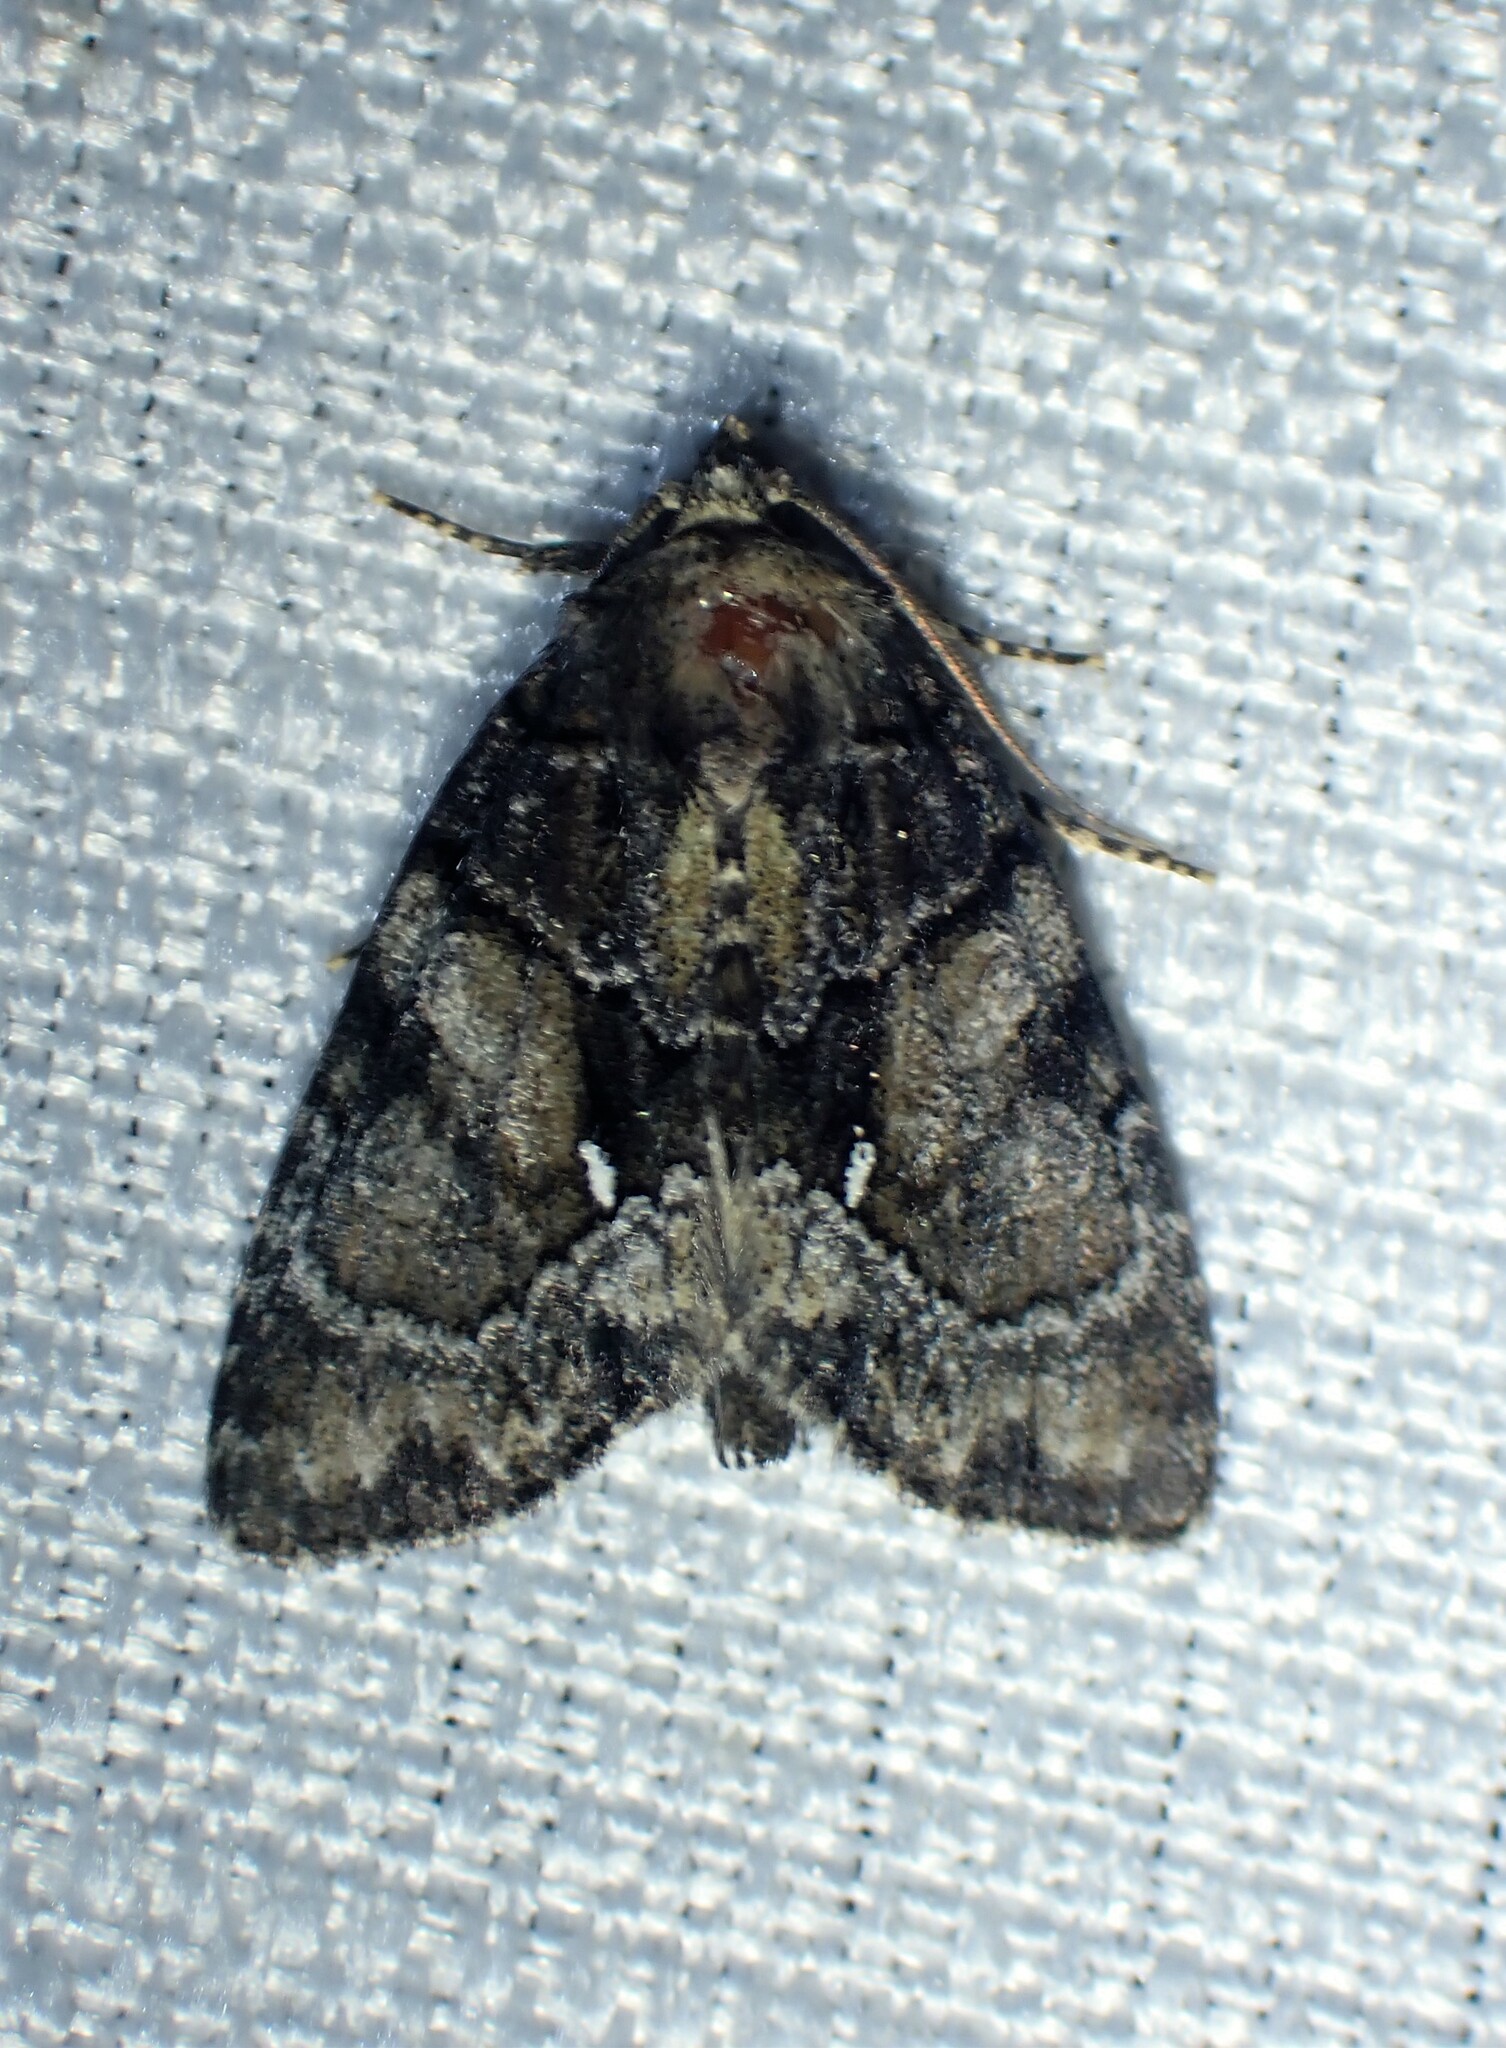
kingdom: Animalia
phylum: Arthropoda
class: Insecta
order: Lepidoptera
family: Noctuidae
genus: Chytonix
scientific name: Chytonix palliatricula
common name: Cloaked marvel
